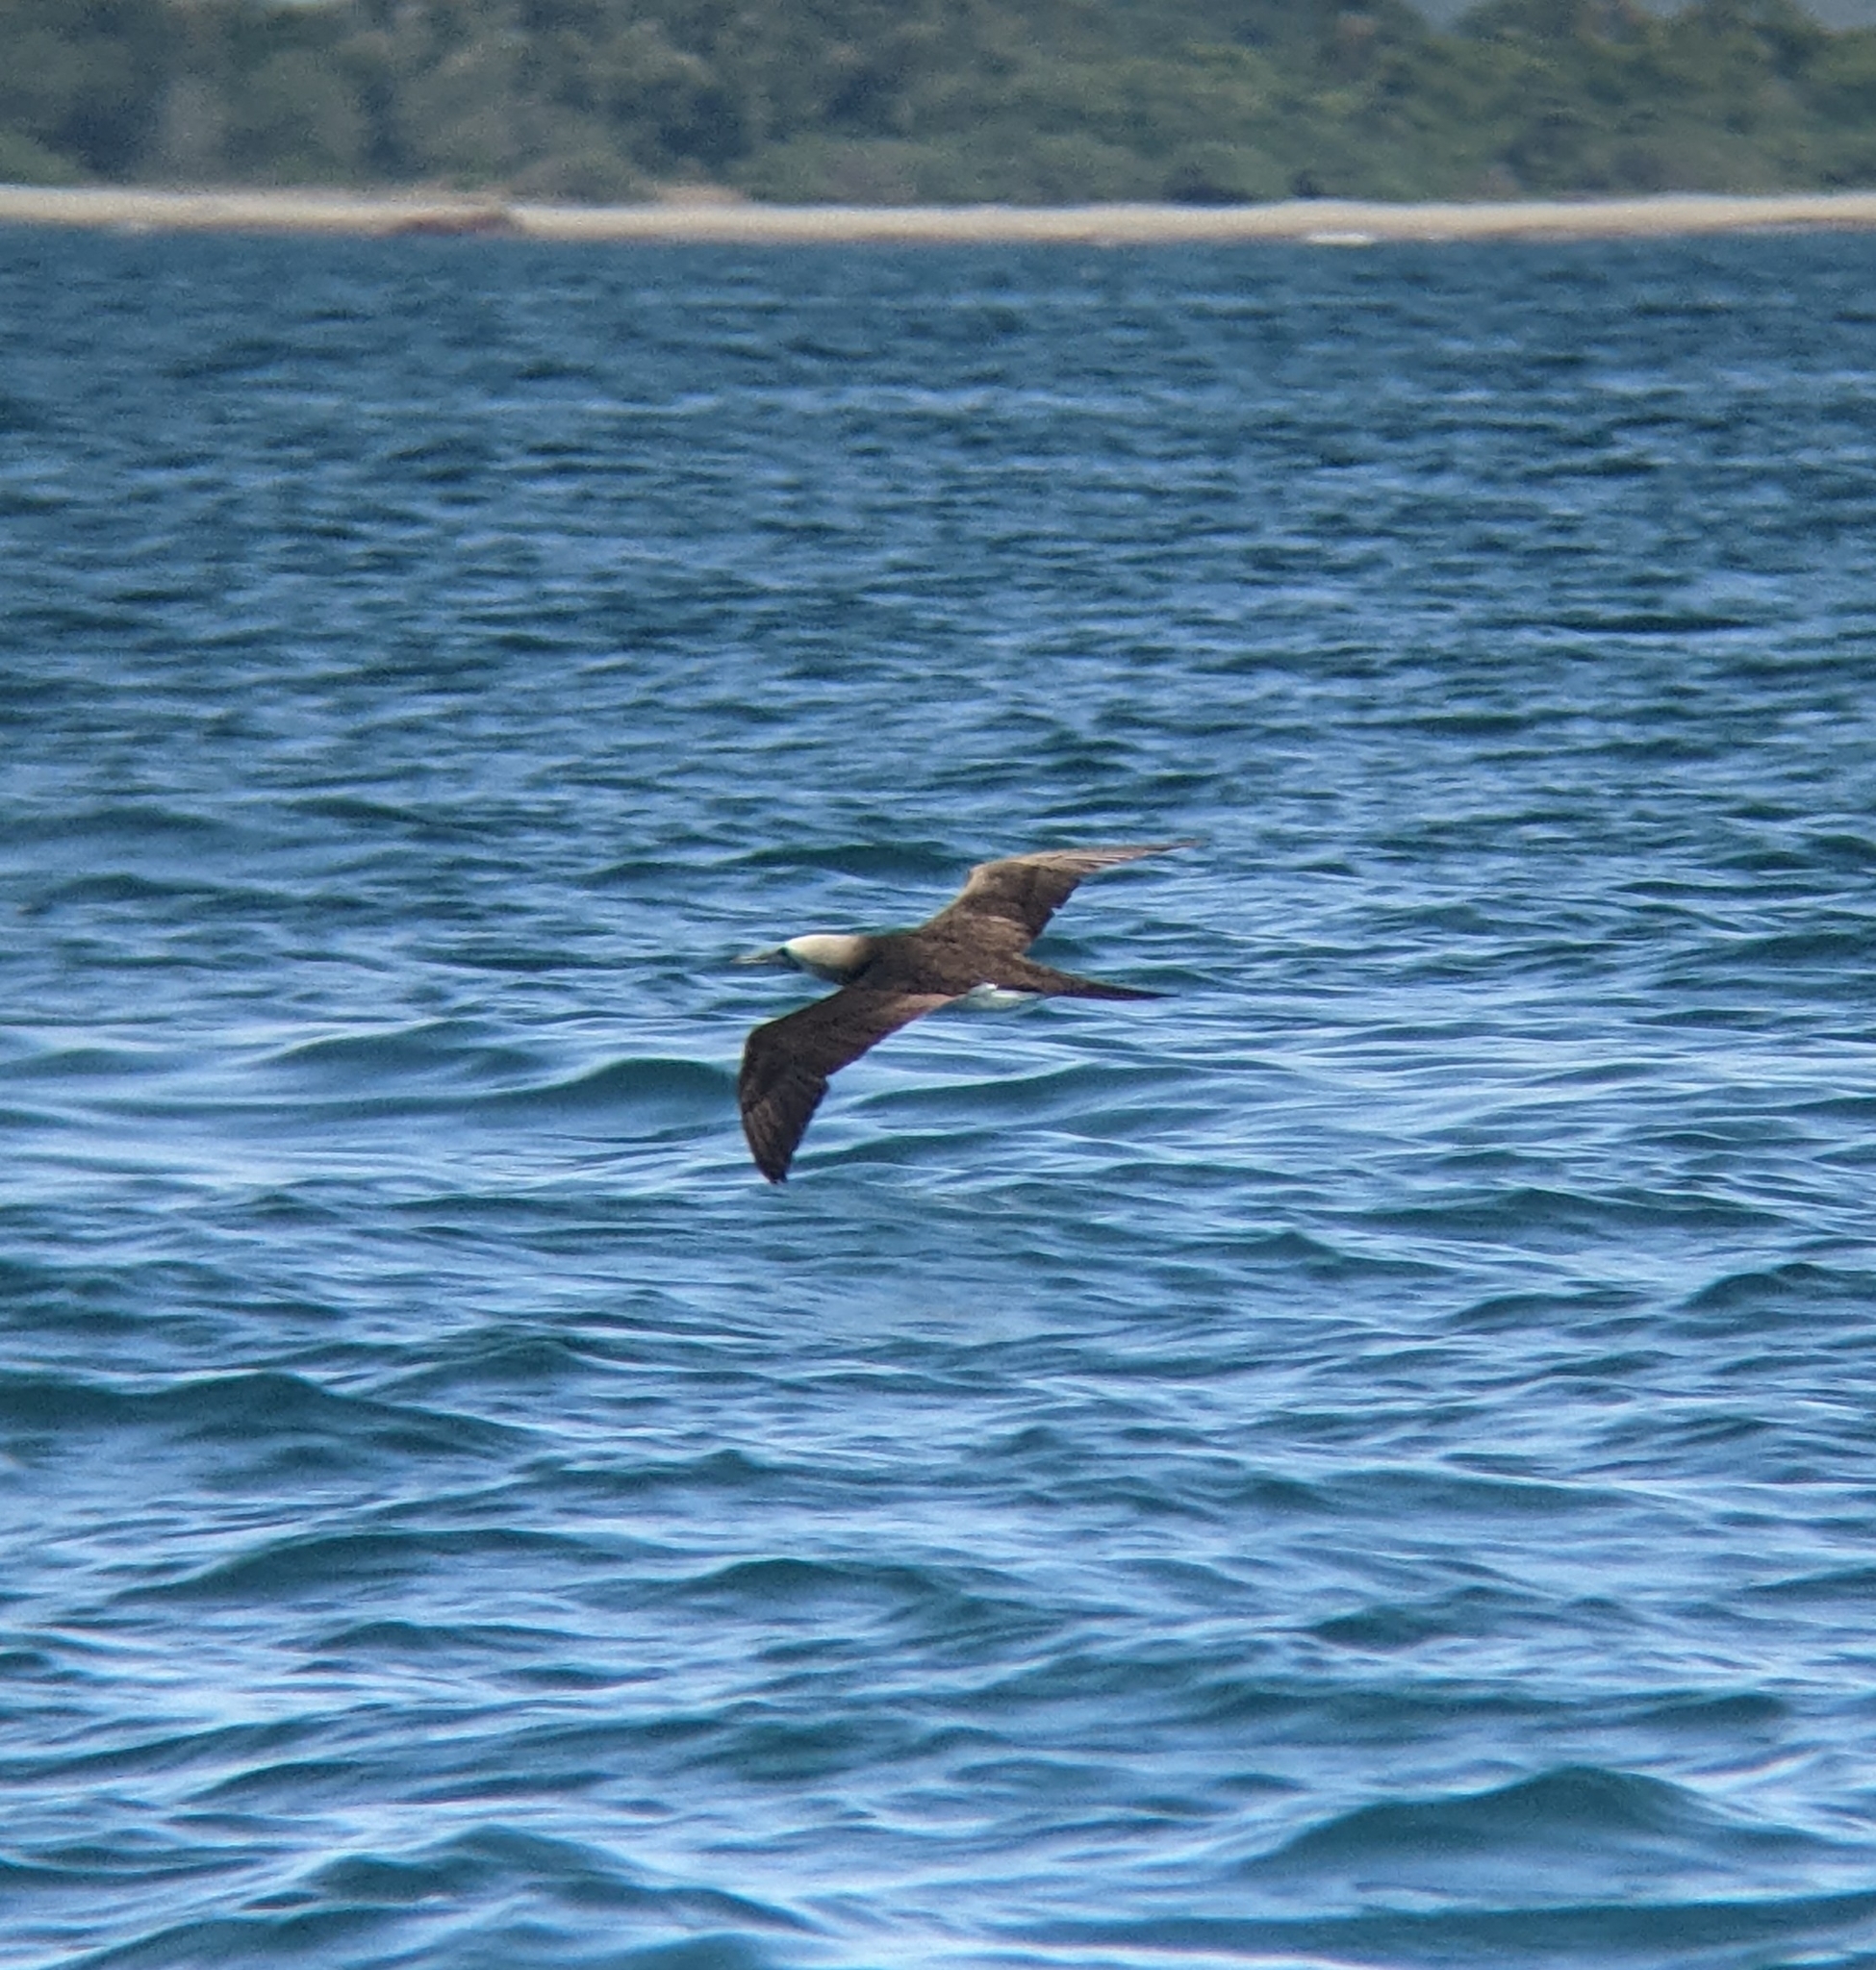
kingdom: Animalia
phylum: Chordata
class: Aves
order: Suliformes
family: Sulidae
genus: Sula
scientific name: Sula leucogaster
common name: Brown booby
